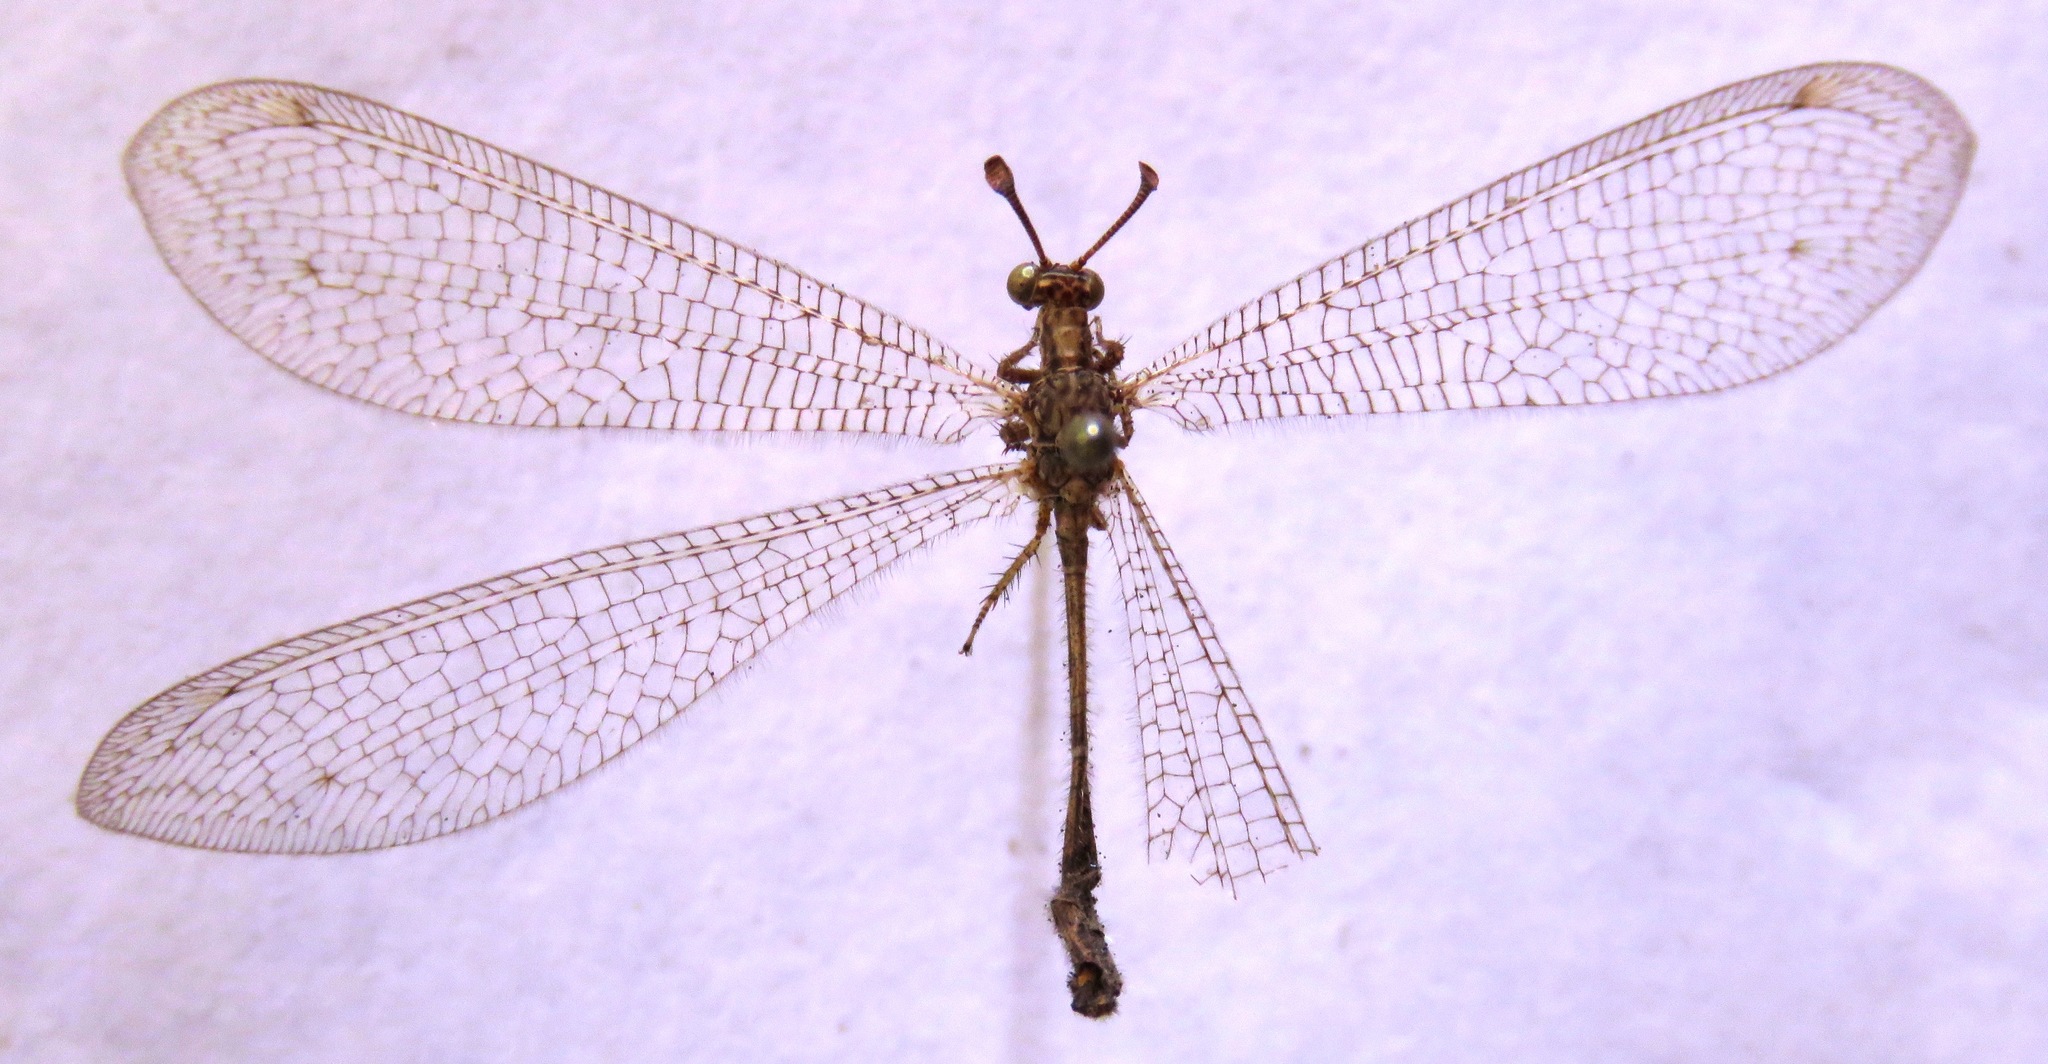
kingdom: Animalia
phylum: Arthropoda
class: Insecta
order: Neuroptera
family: Myrmeleontidae
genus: Dejuna
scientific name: Dejuna fenestrata
